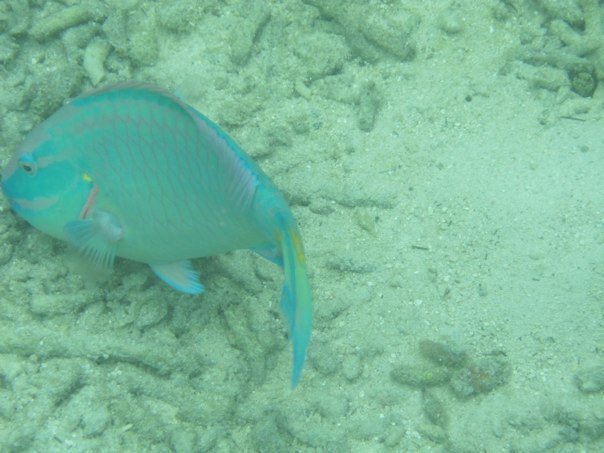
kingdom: Animalia
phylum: Chordata
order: Perciformes
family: Scaridae
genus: Sparisoma
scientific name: Sparisoma viride
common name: Stoplight parrotfish
